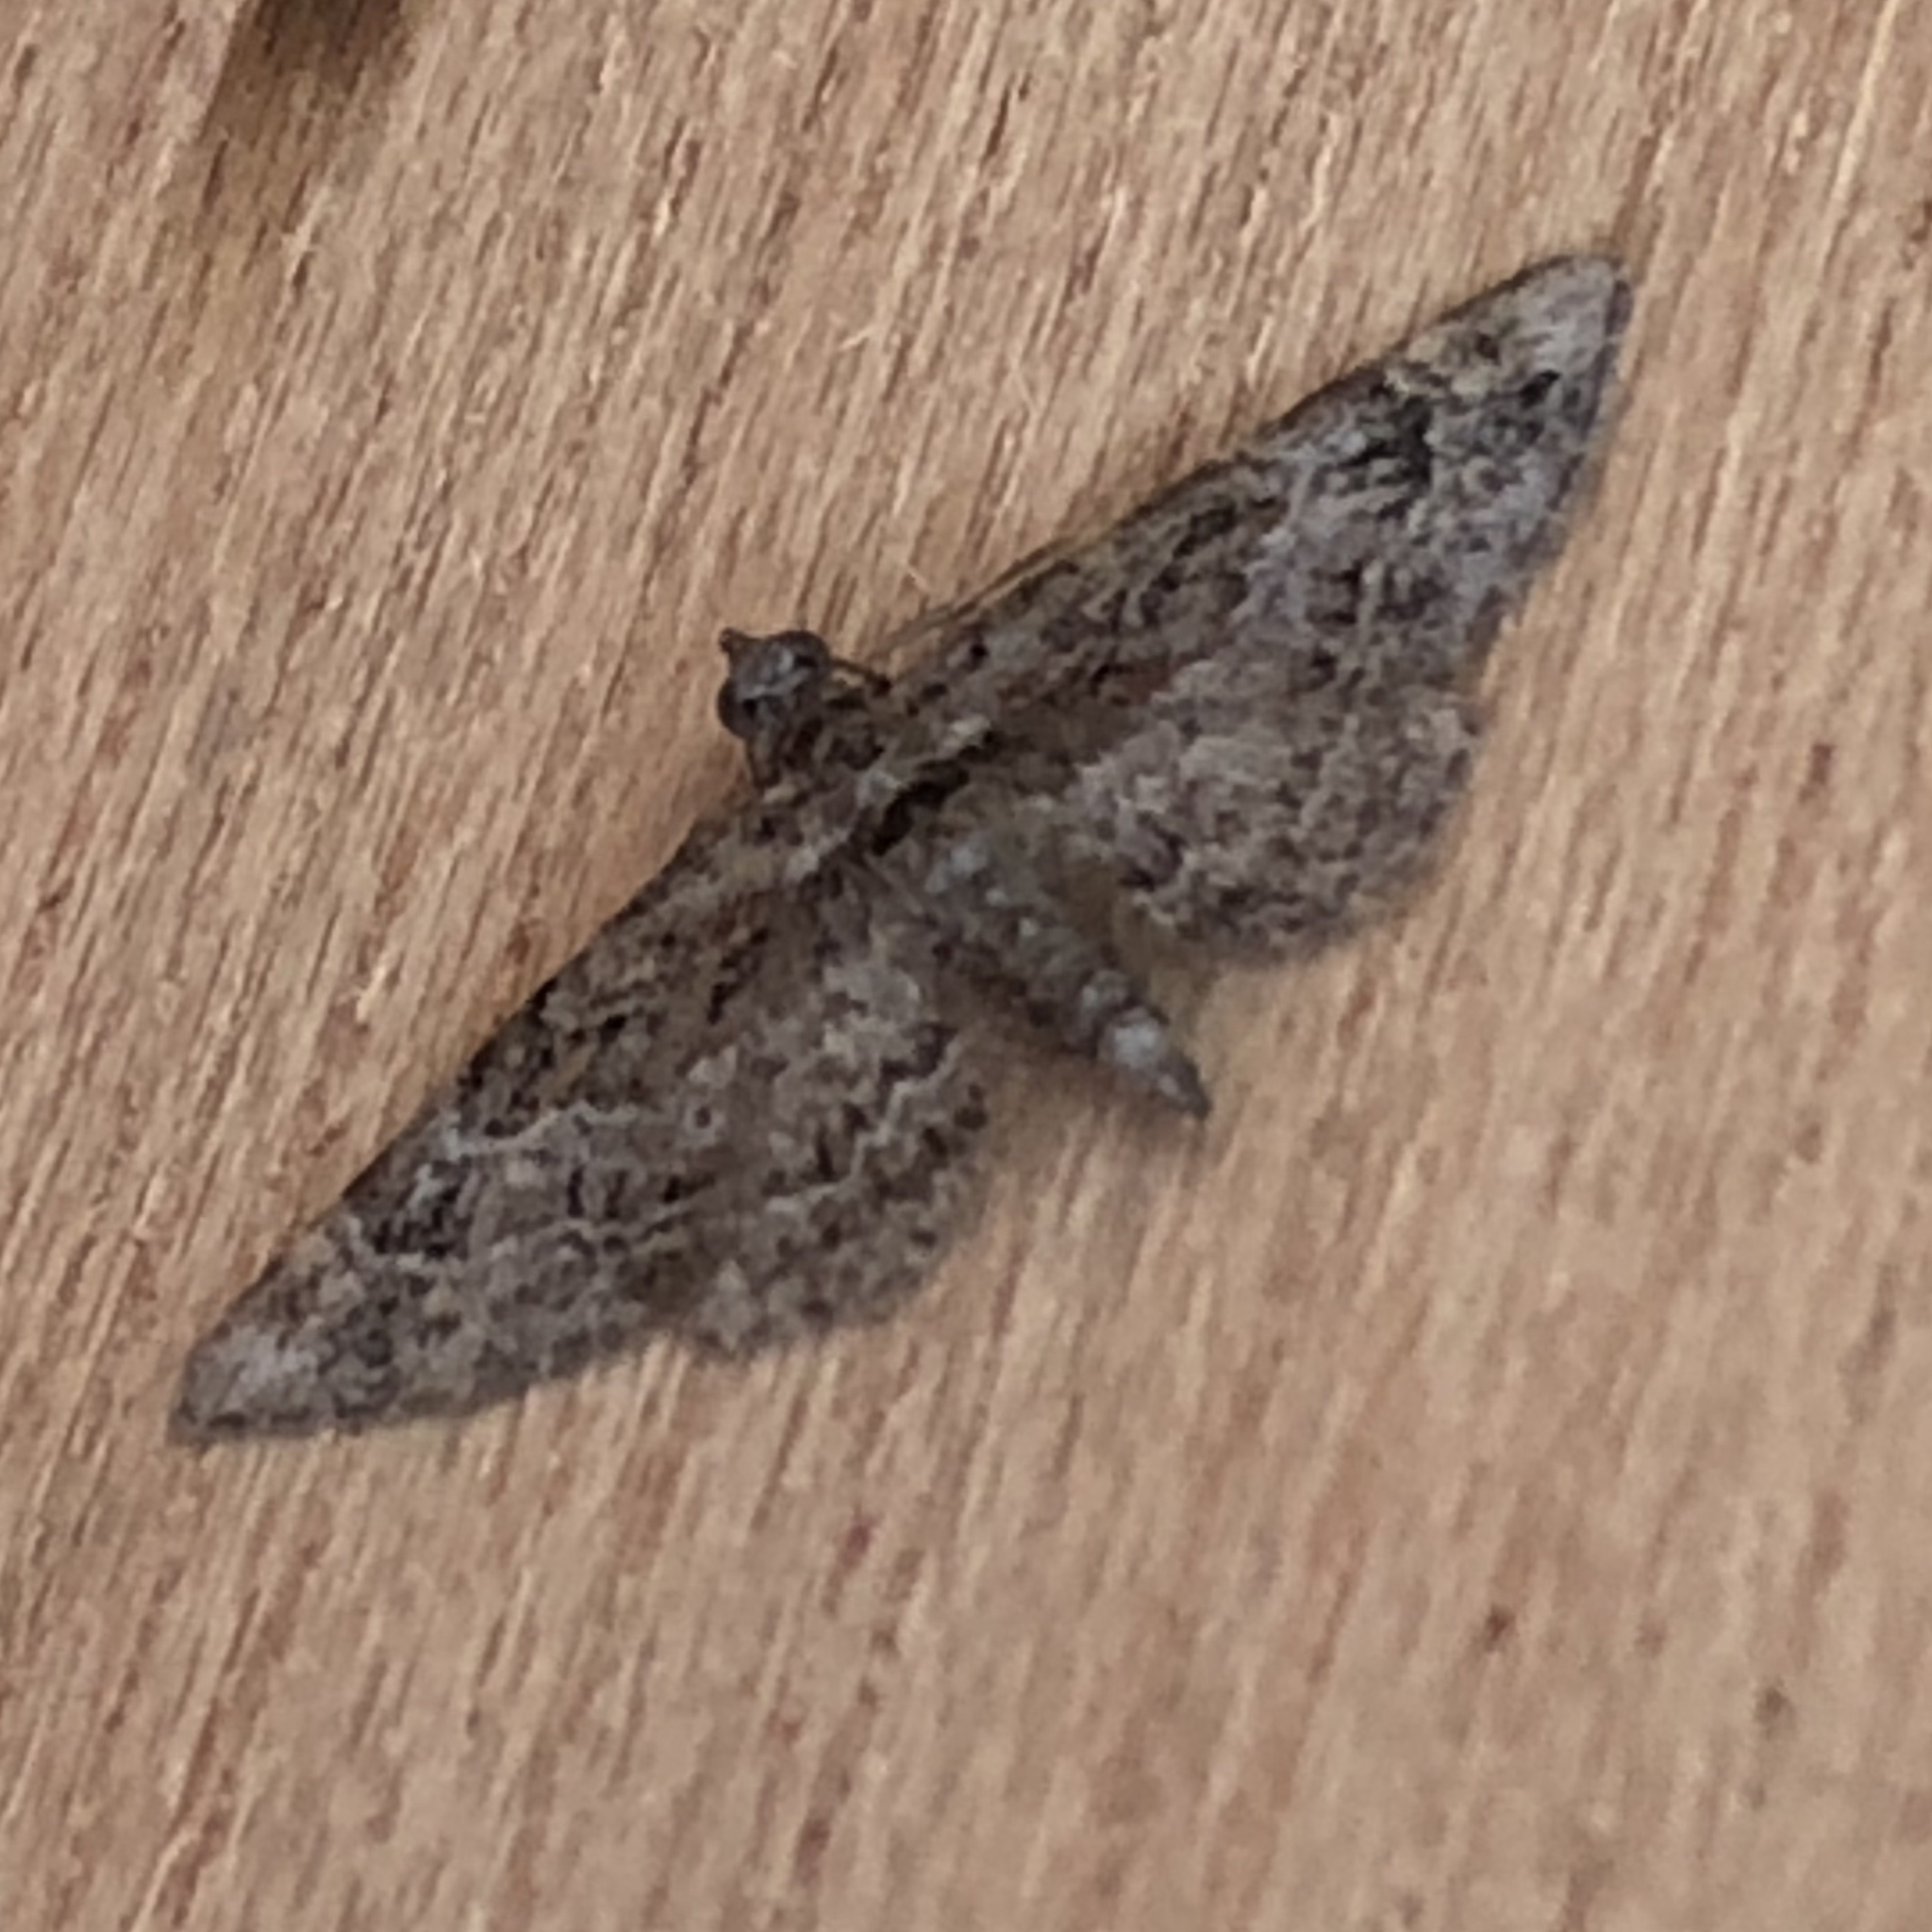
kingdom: Animalia
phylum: Arthropoda
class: Insecta
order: Lepidoptera
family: Geometridae
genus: Gymnoscelis
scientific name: Gymnoscelis rufifasciata
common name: Double-striped pug
